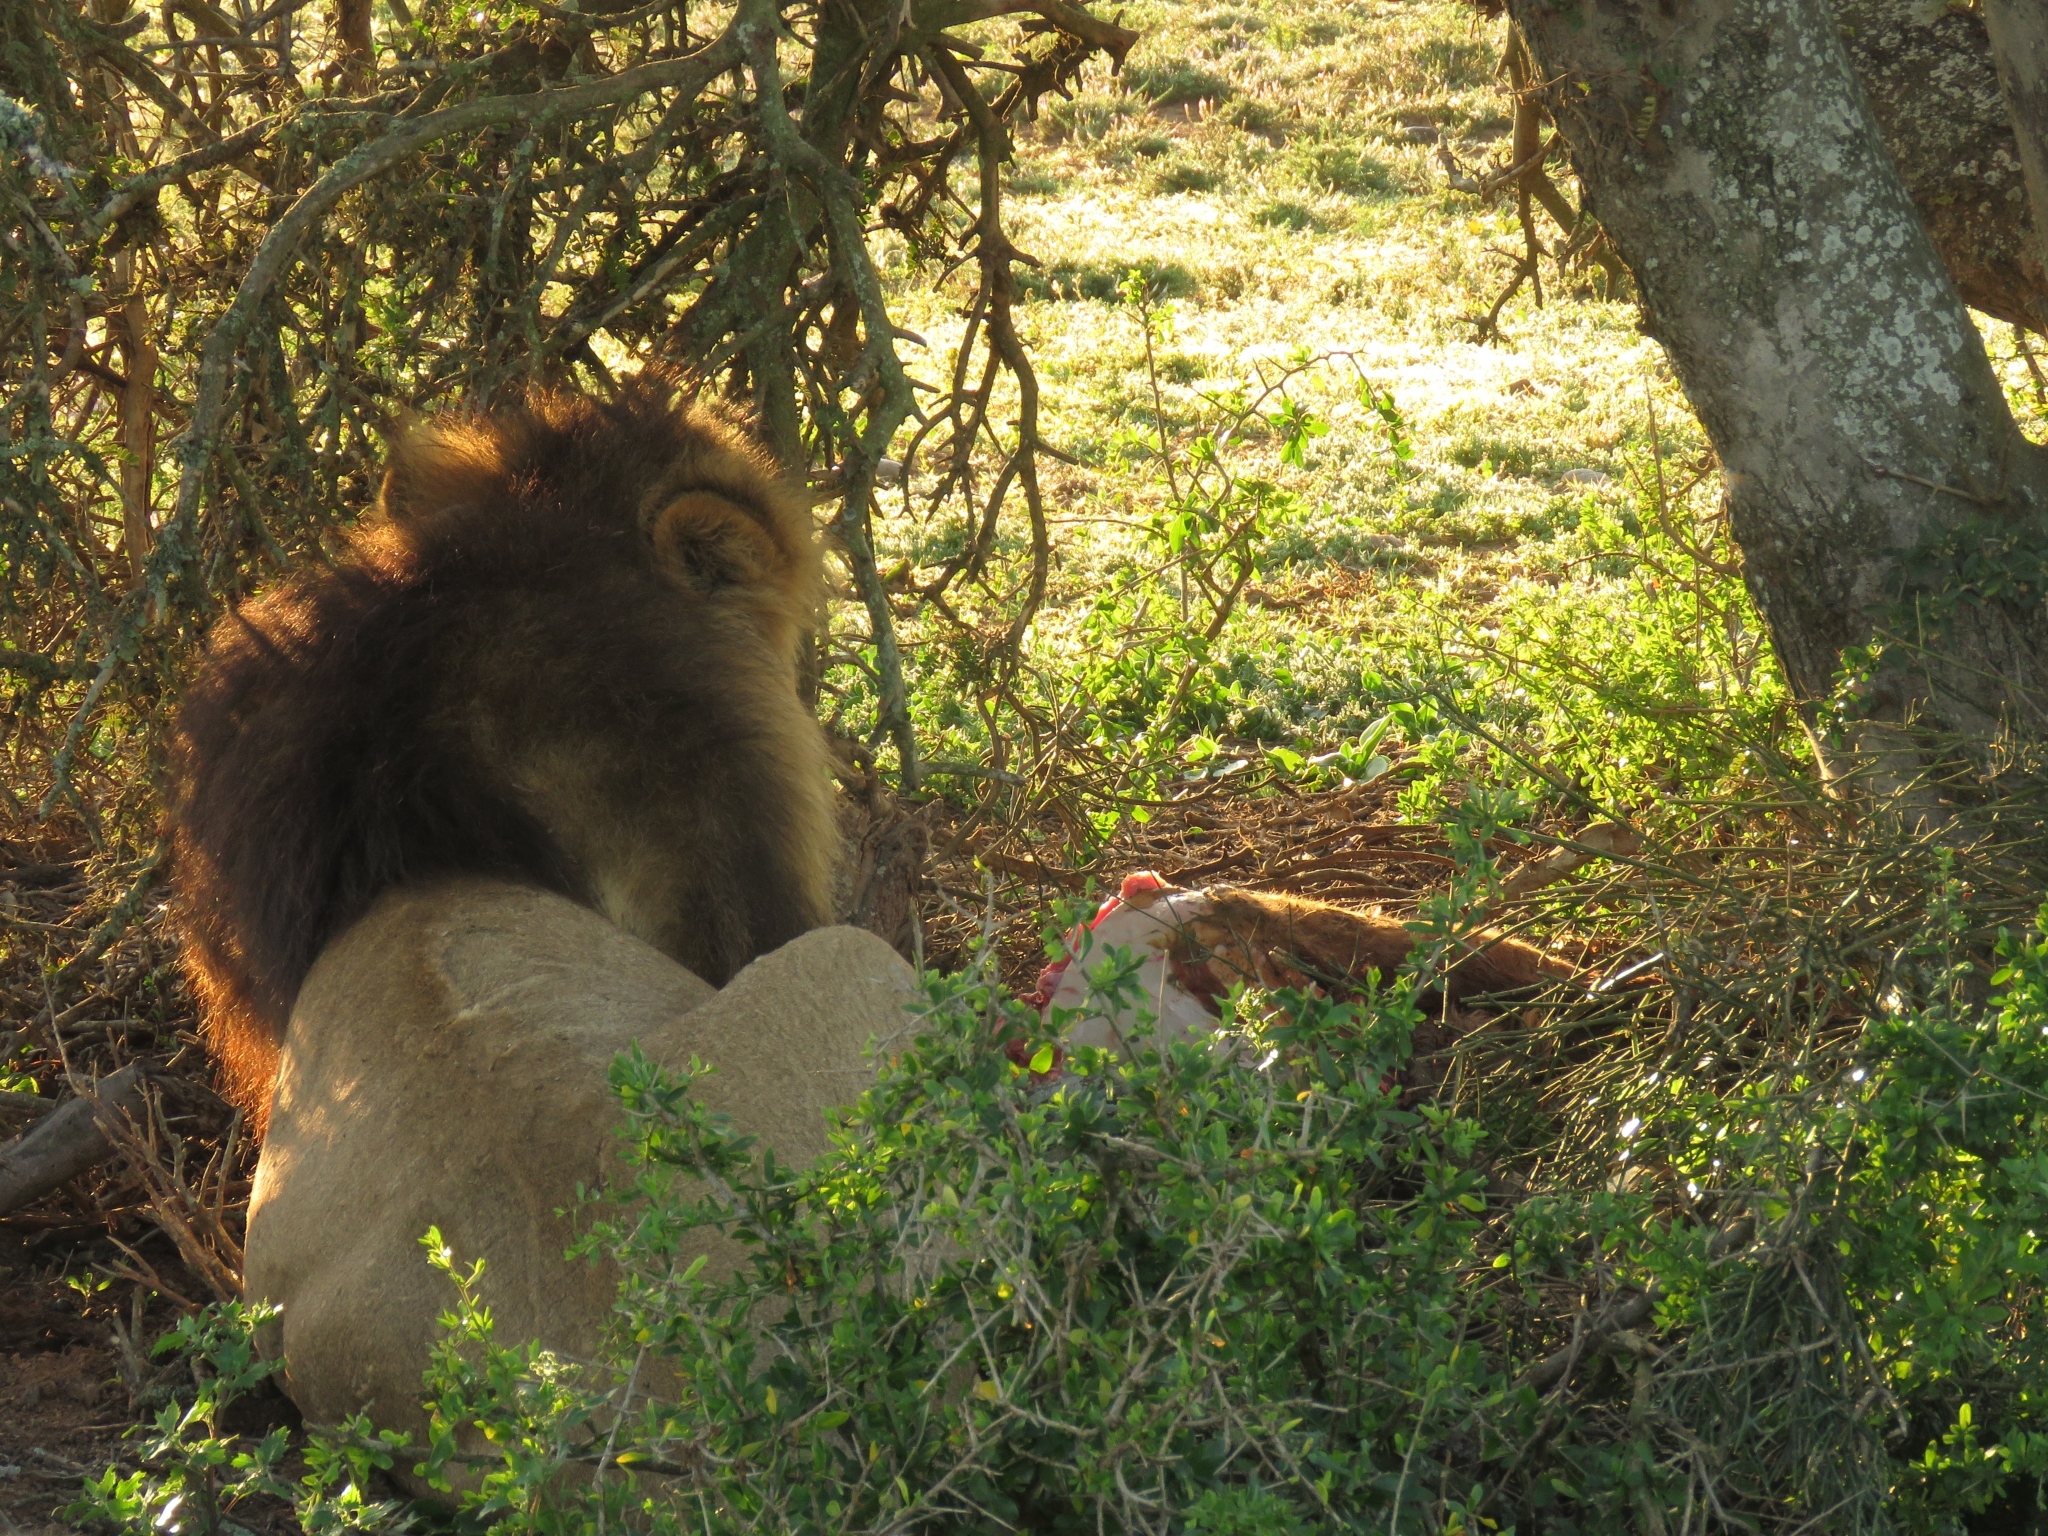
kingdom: Animalia
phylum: Chordata
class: Mammalia
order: Carnivora
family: Felidae
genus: Panthera
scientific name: Panthera leo
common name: Lion
